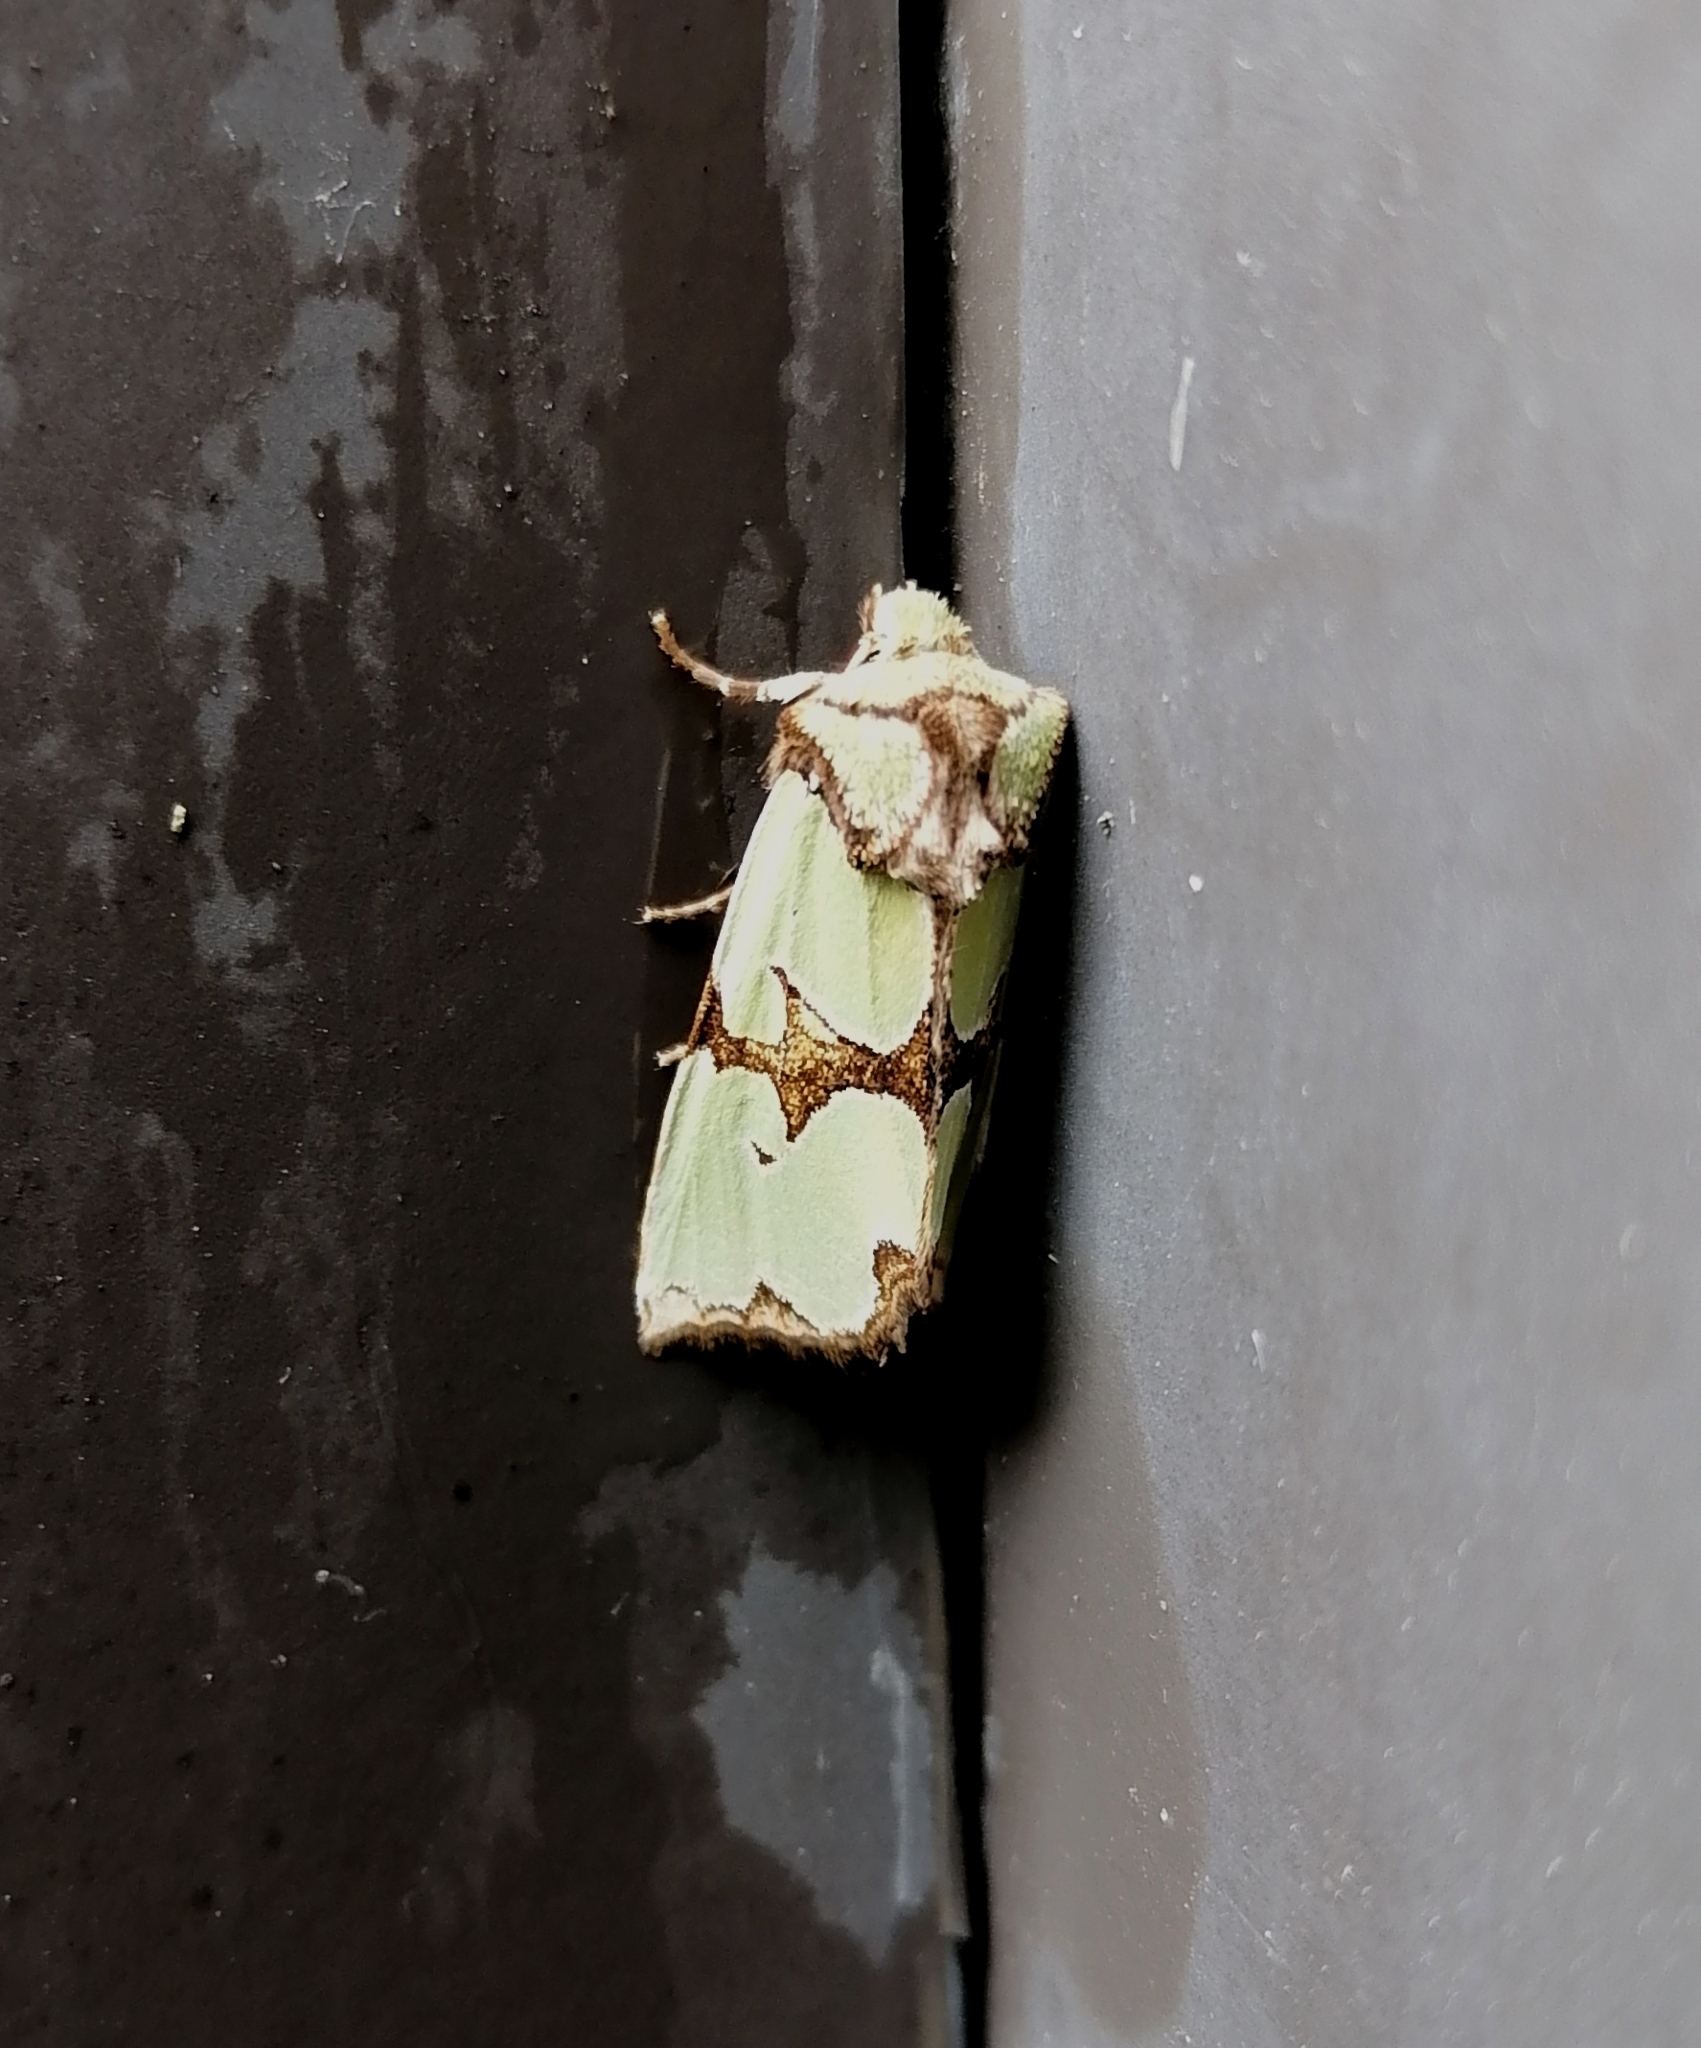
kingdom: Animalia
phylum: Arthropoda
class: Insecta
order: Lepidoptera
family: Noctuidae
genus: Staurophora
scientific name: Staurophora celsia
